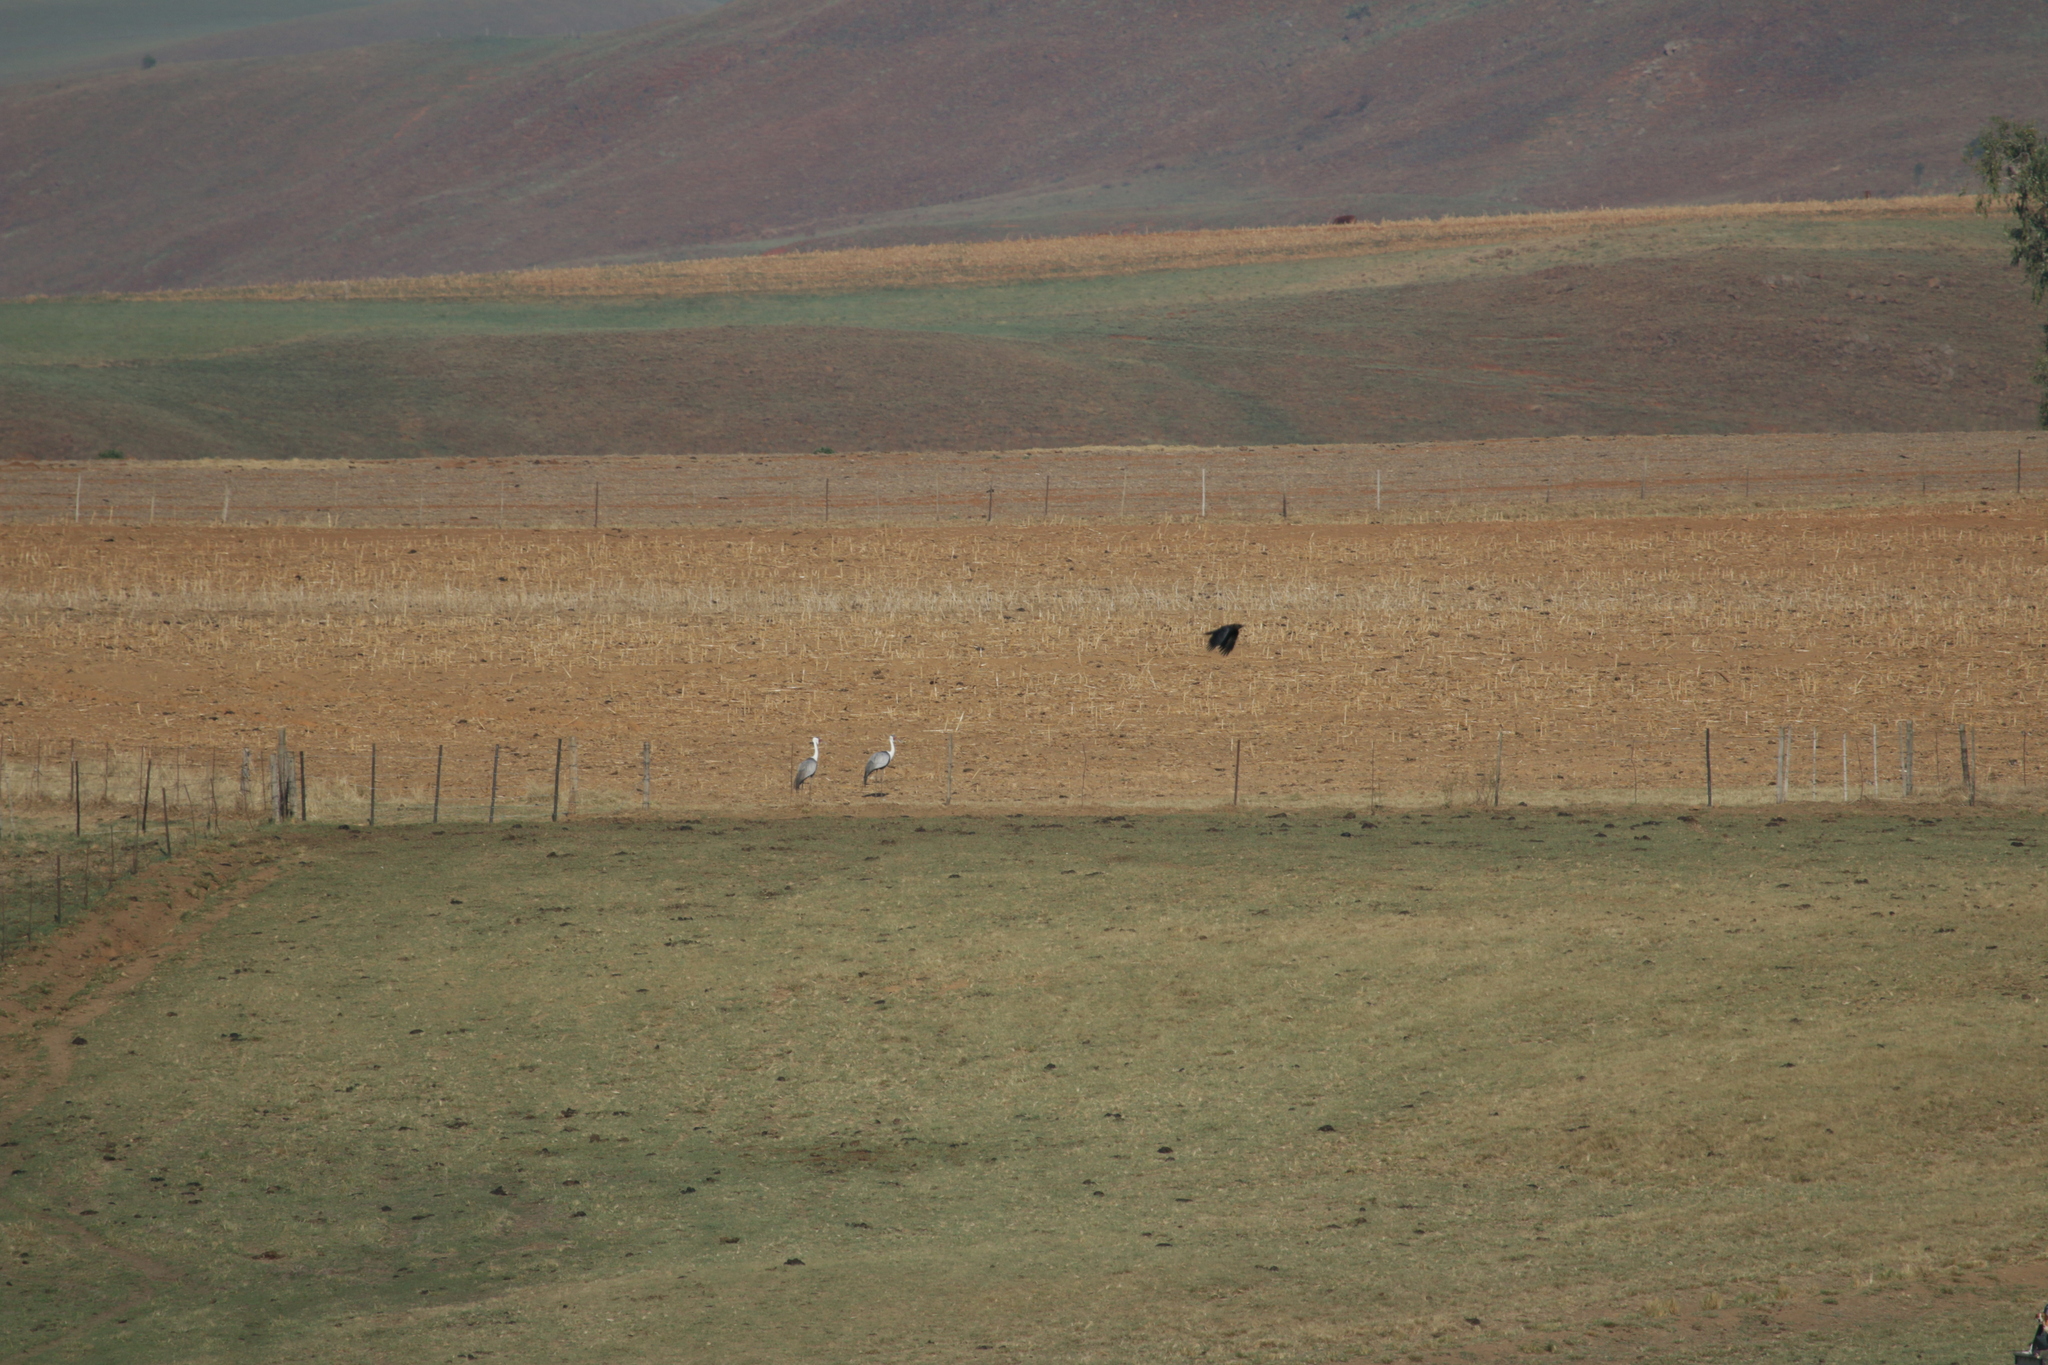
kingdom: Animalia
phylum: Chordata
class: Aves
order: Gruiformes
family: Gruidae
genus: Bugeranus
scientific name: Bugeranus carunculatus
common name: Wattled crane
